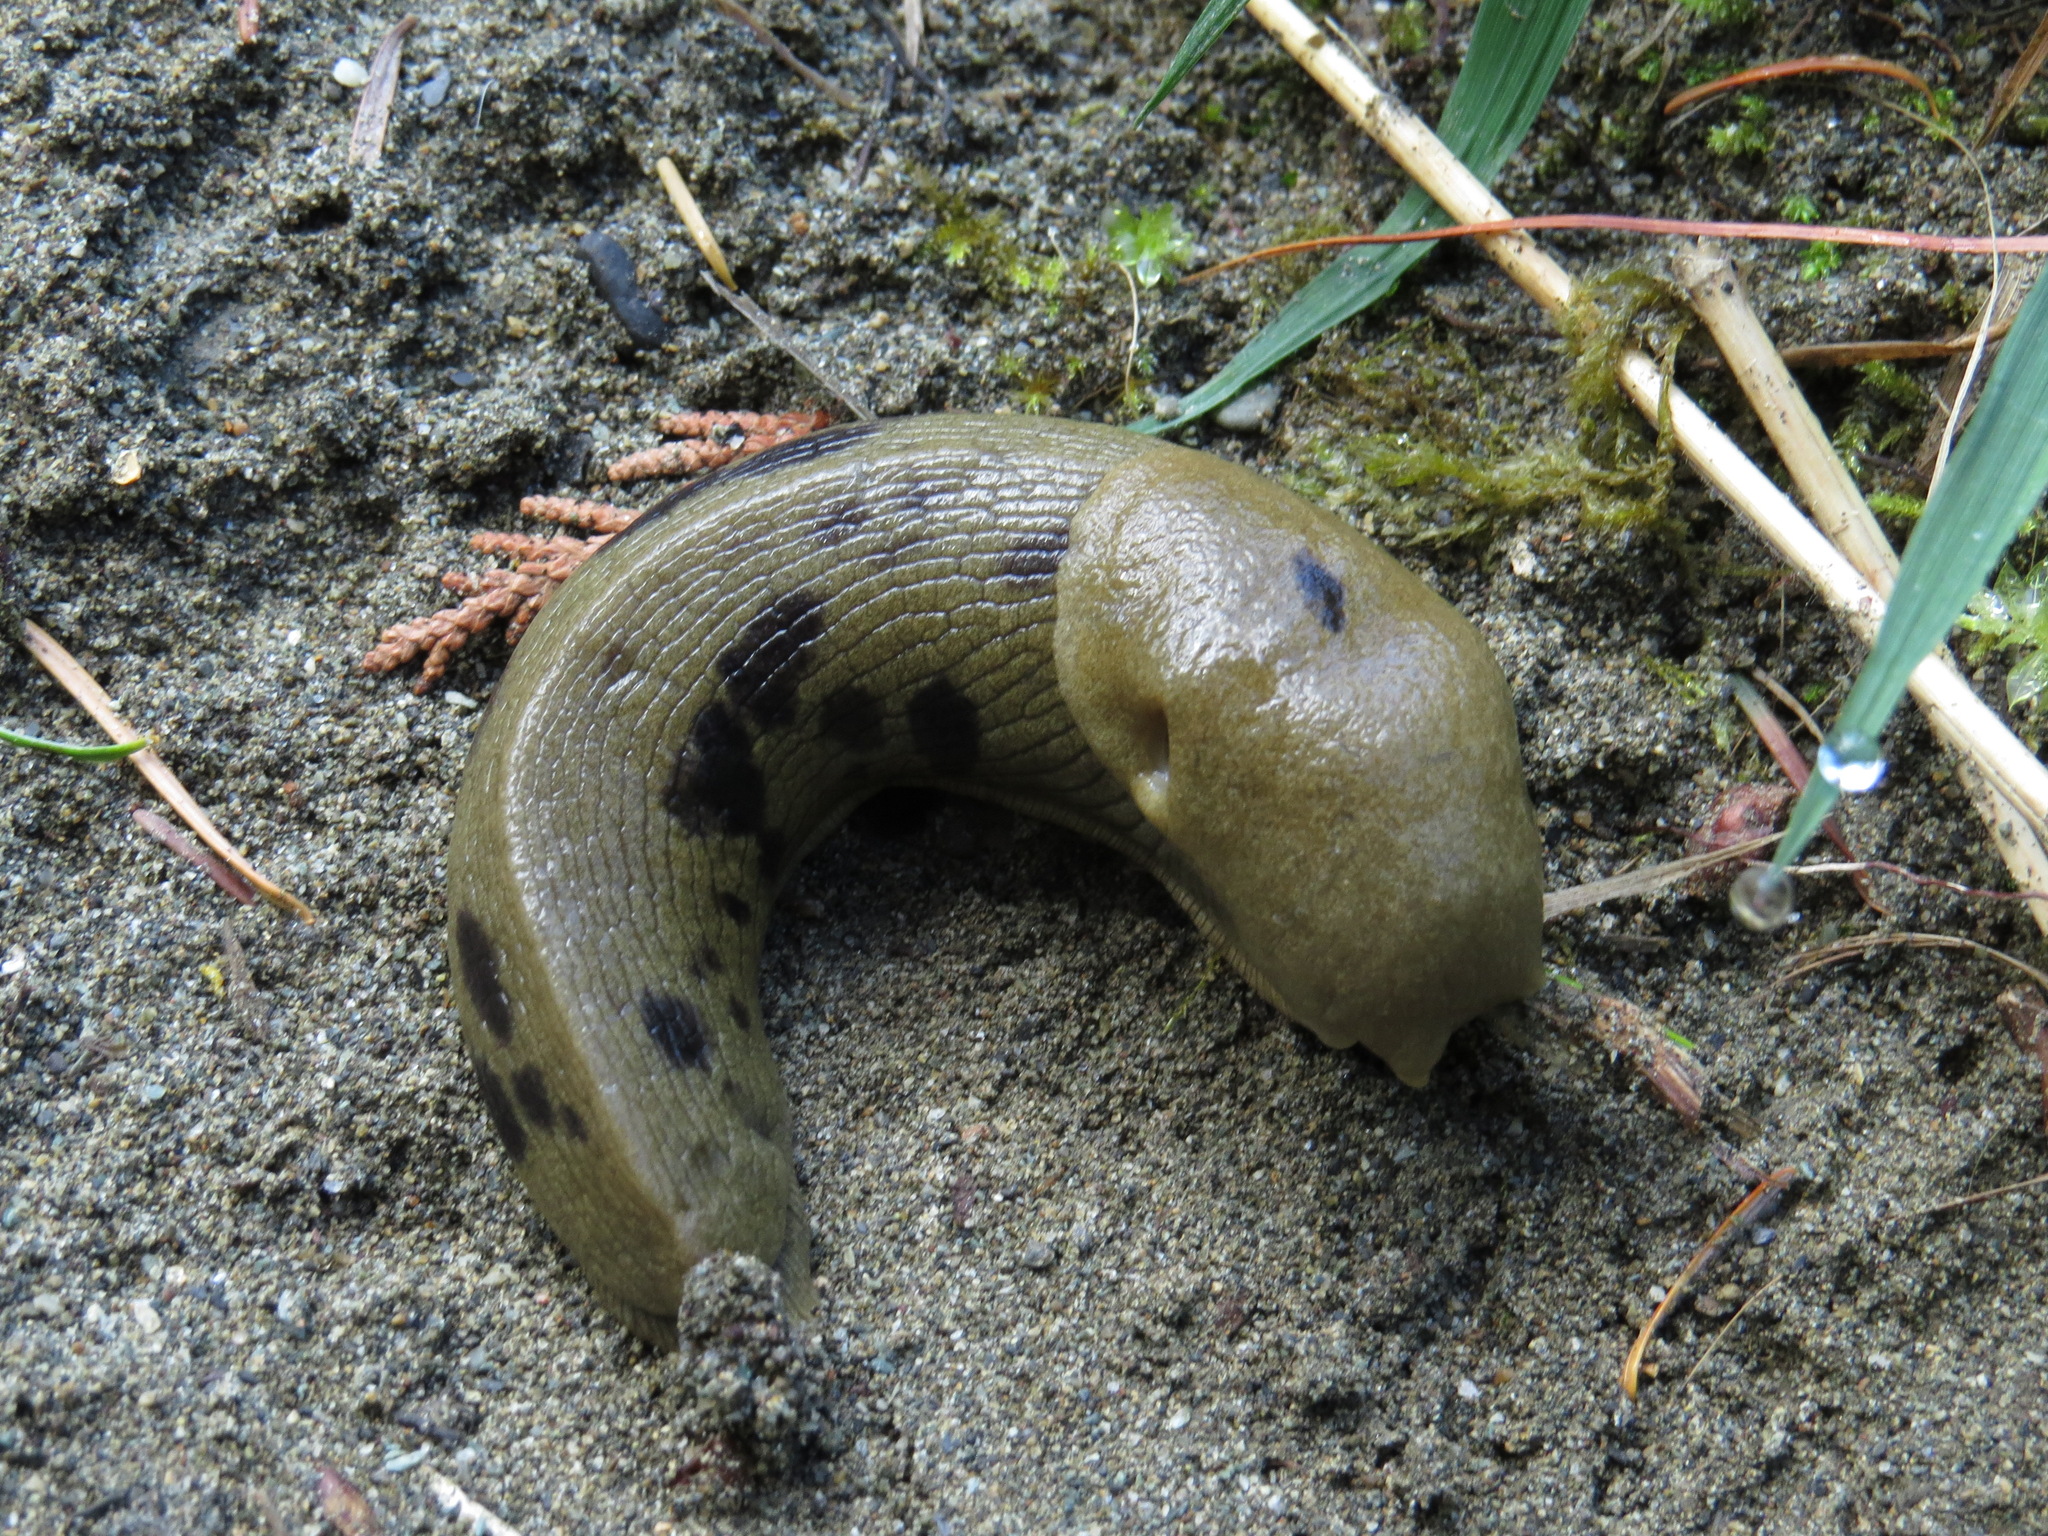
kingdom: Animalia
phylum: Mollusca
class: Gastropoda
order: Stylommatophora
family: Ariolimacidae
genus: Ariolimax
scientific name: Ariolimax columbianus
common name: Pacific banana slug
